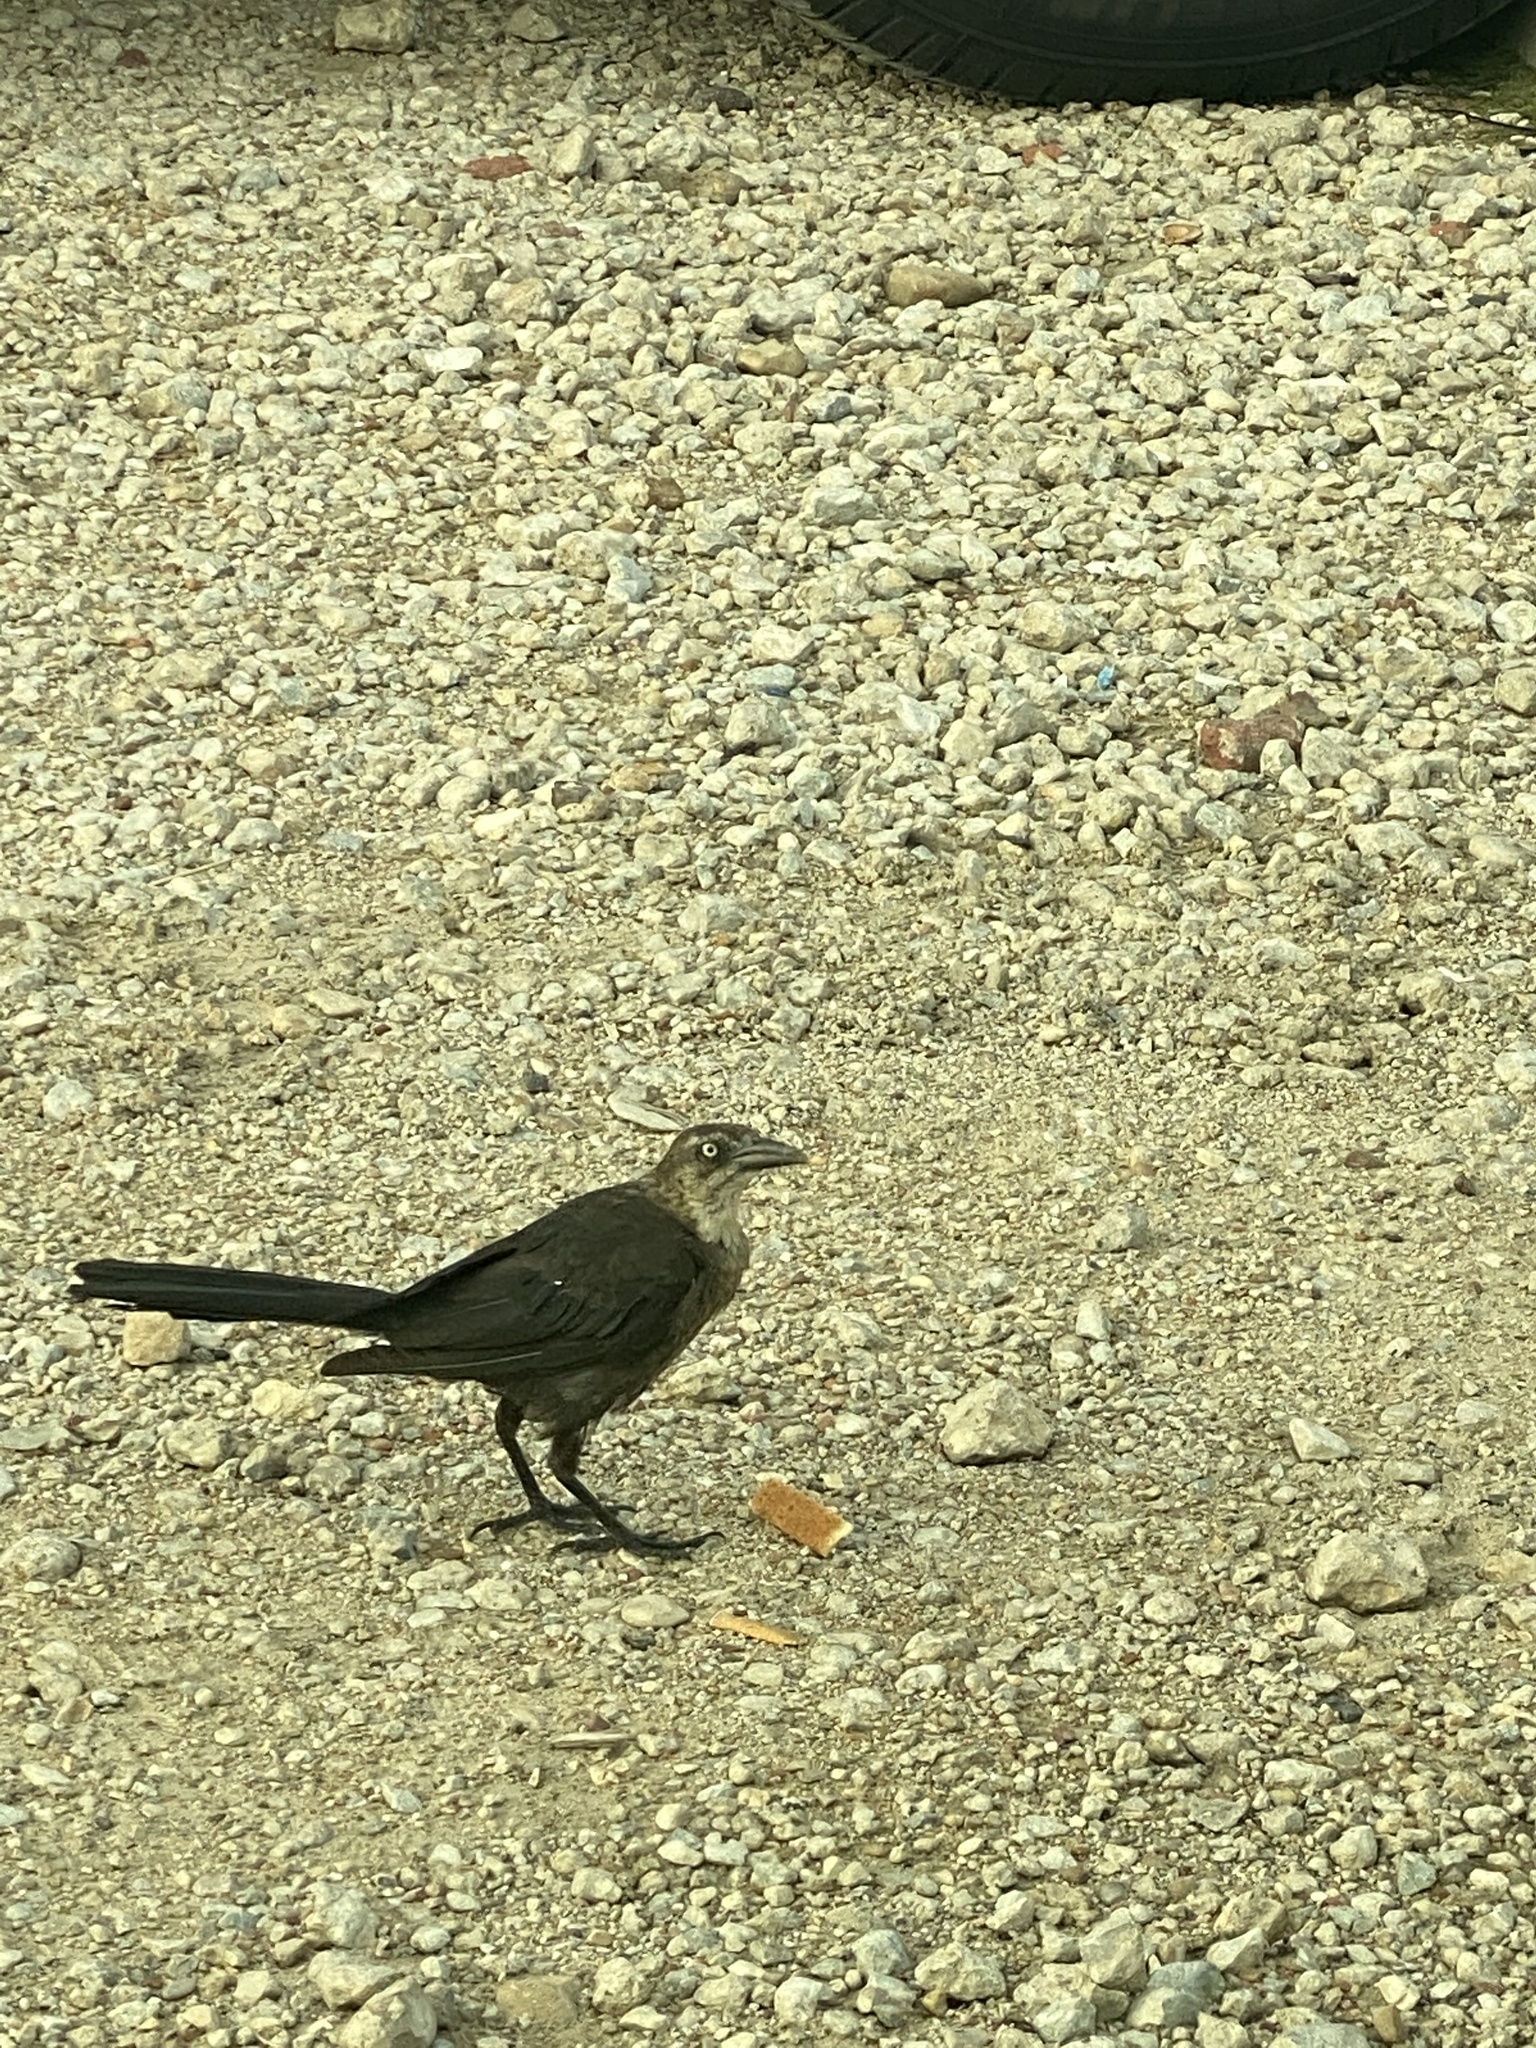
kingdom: Animalia
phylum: Chordata
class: Aves
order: Passeriformes
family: Icteridae
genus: Quiscalus
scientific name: Quiscalus mexicanus
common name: Great-tailed grackle
